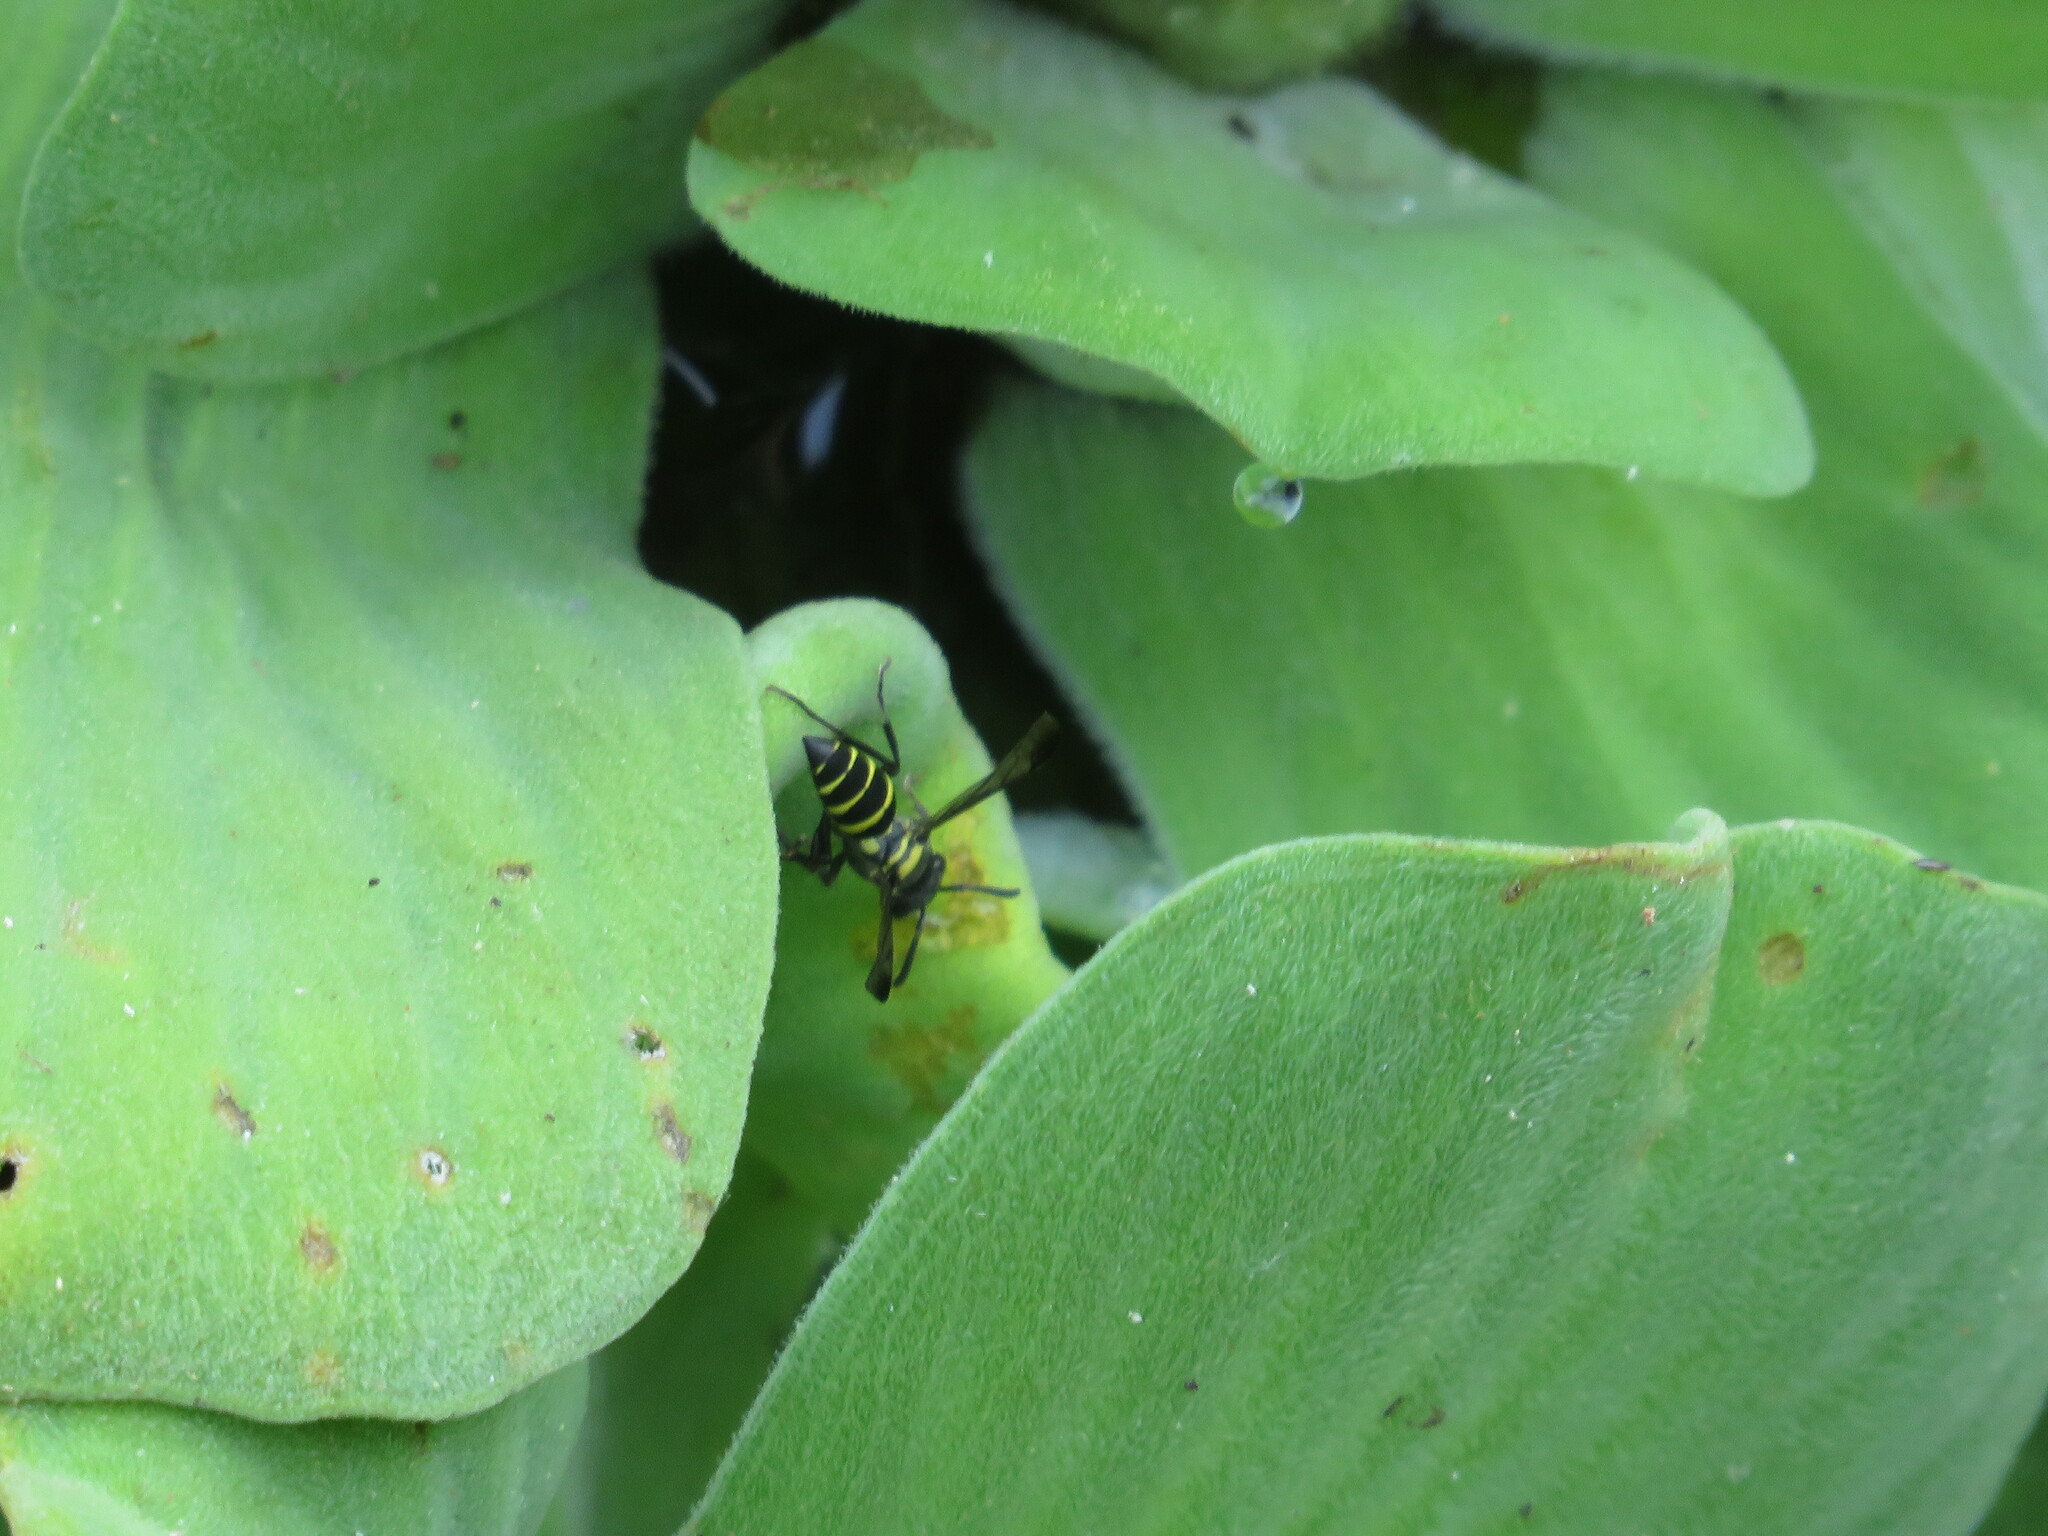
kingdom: Animalia
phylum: Arthropoda
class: Insecta
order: Hymenoptera
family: Eumenidae
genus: Polybia
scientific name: Polybia occidentalis
